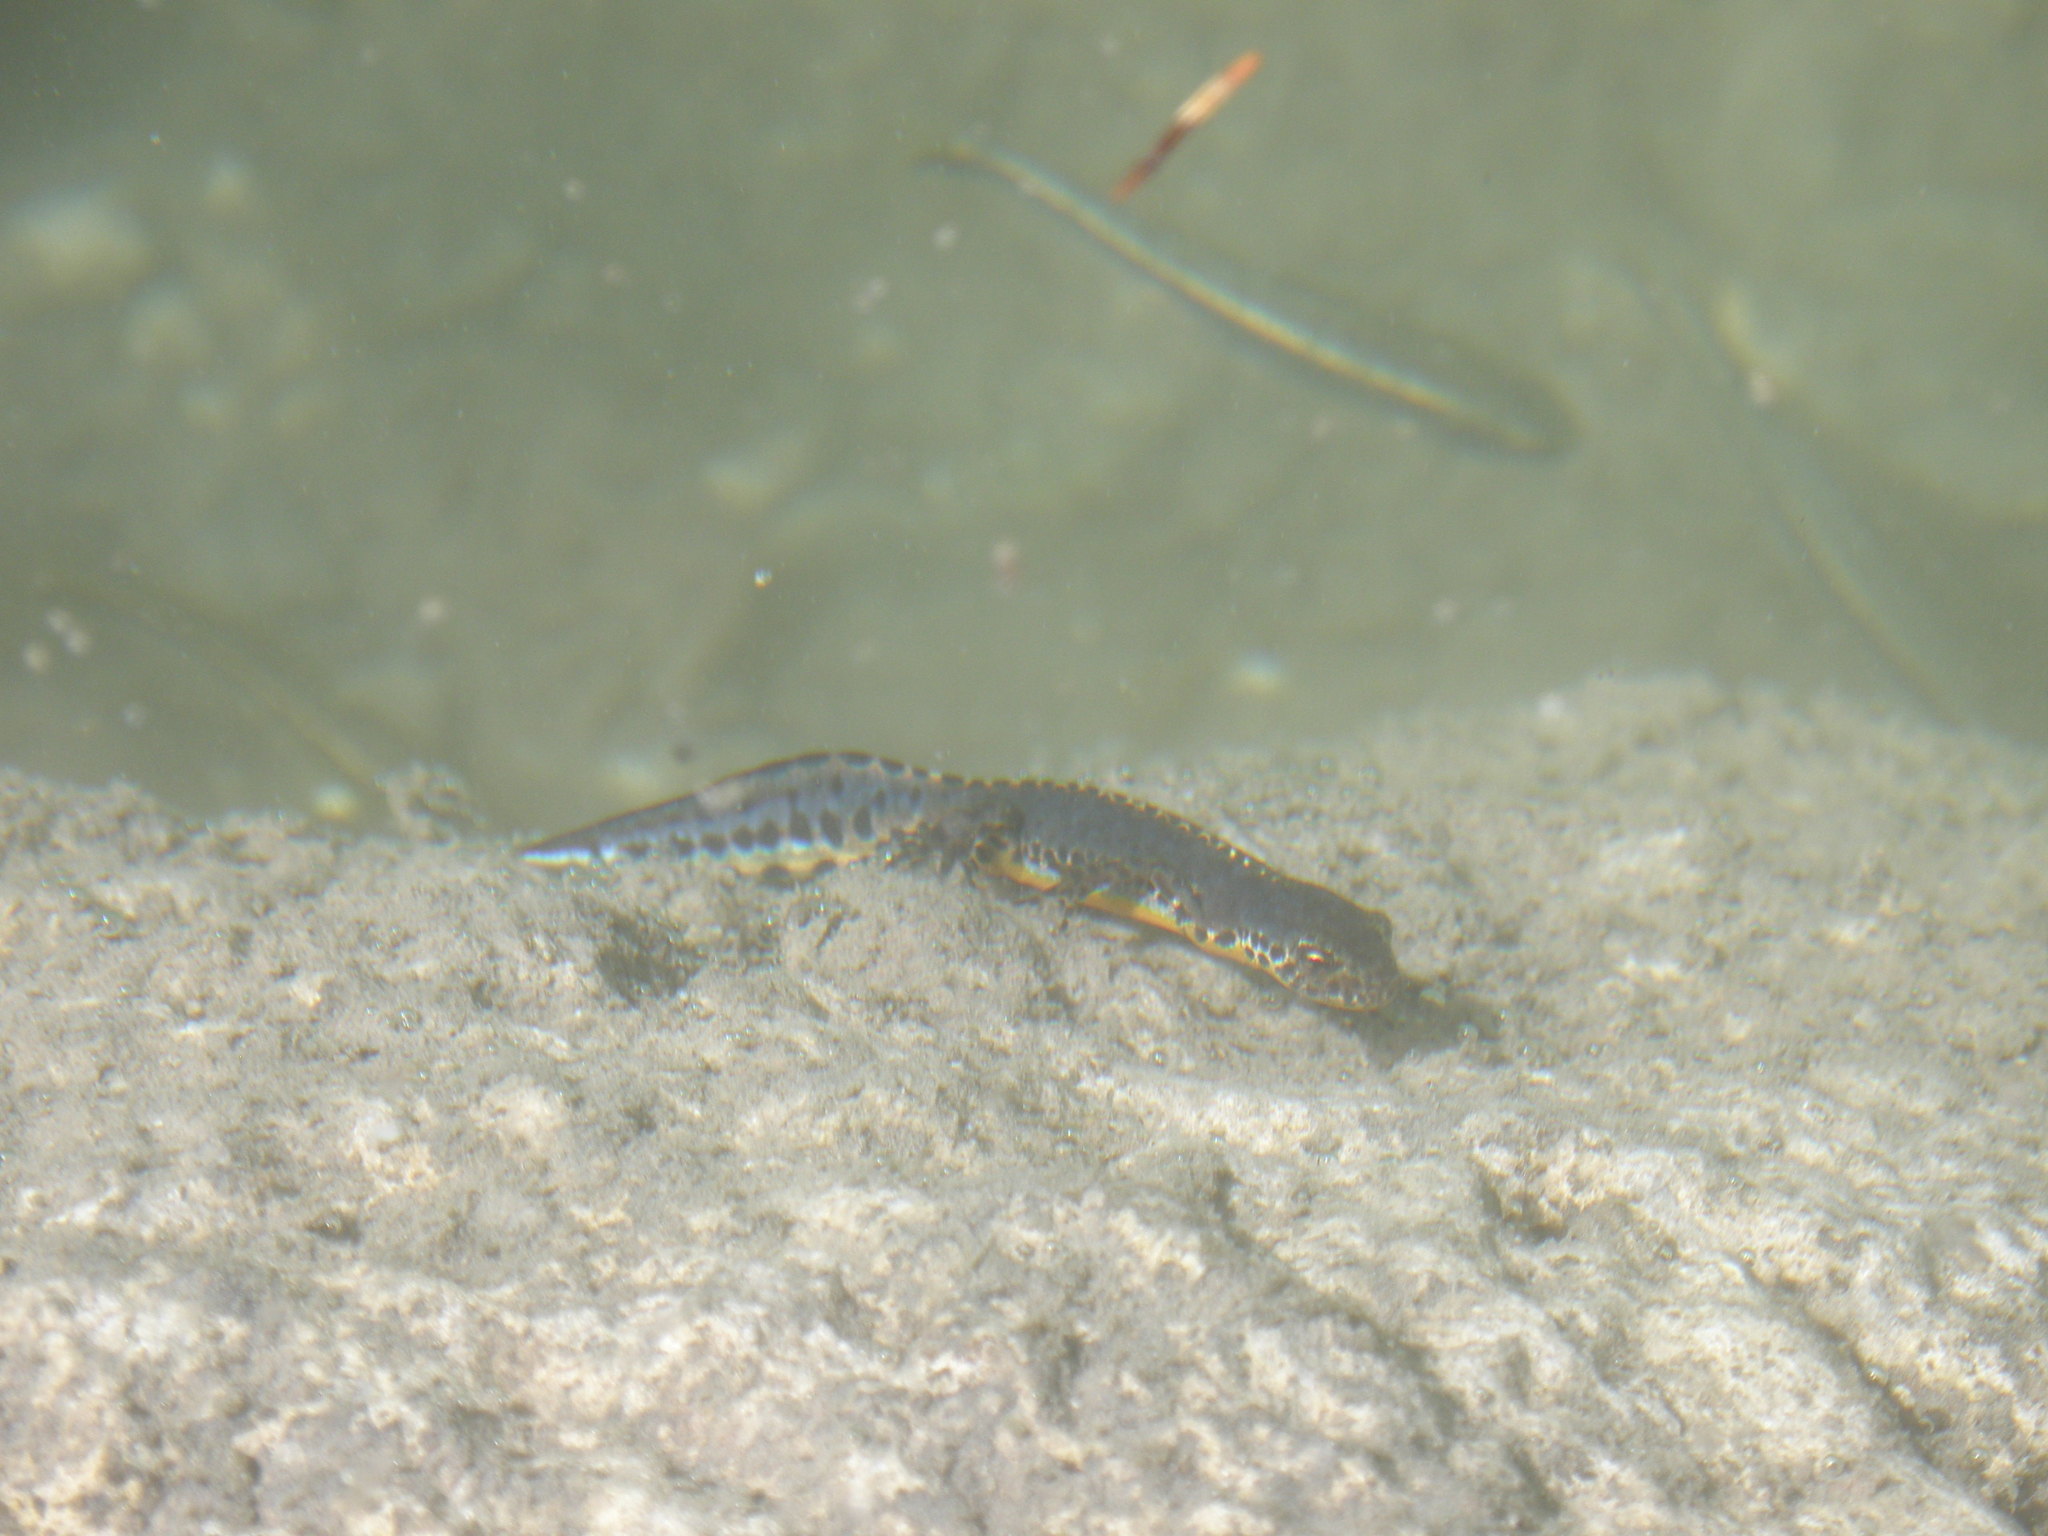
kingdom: Animalia
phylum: Chordata
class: Amphibia
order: Caudata
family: Salamandridae
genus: Ichthyosaura
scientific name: Ichthyosaura alpestris
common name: Alpine newt
